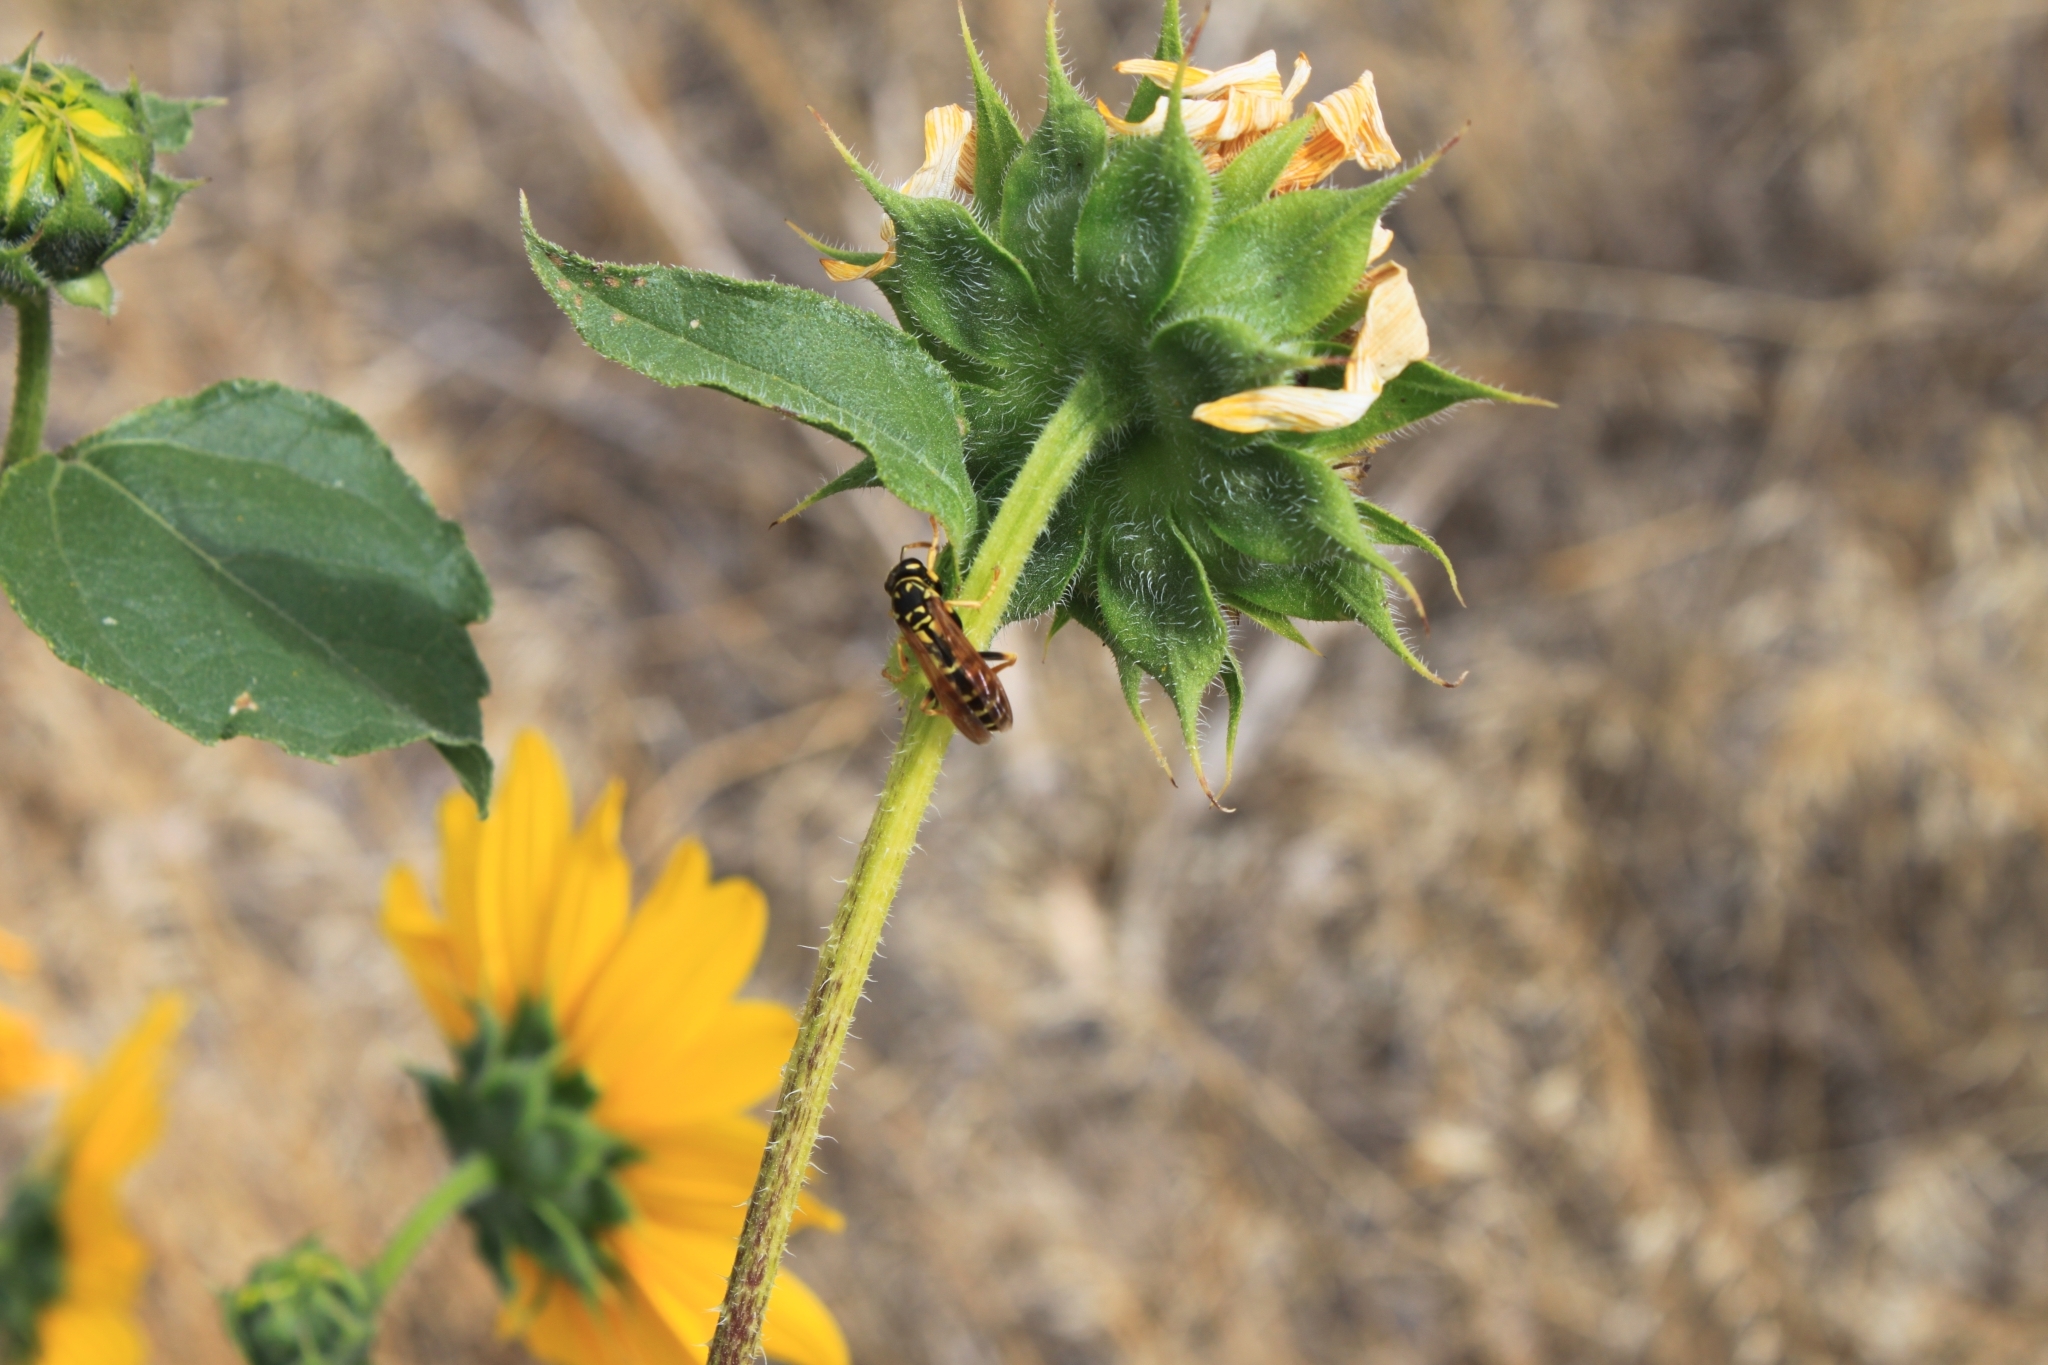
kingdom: Animalia
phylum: Arthropoda
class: Insecta
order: Hymenoptera
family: Eumenidae
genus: Polistes
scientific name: Polistes dominula
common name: Paper wasp
